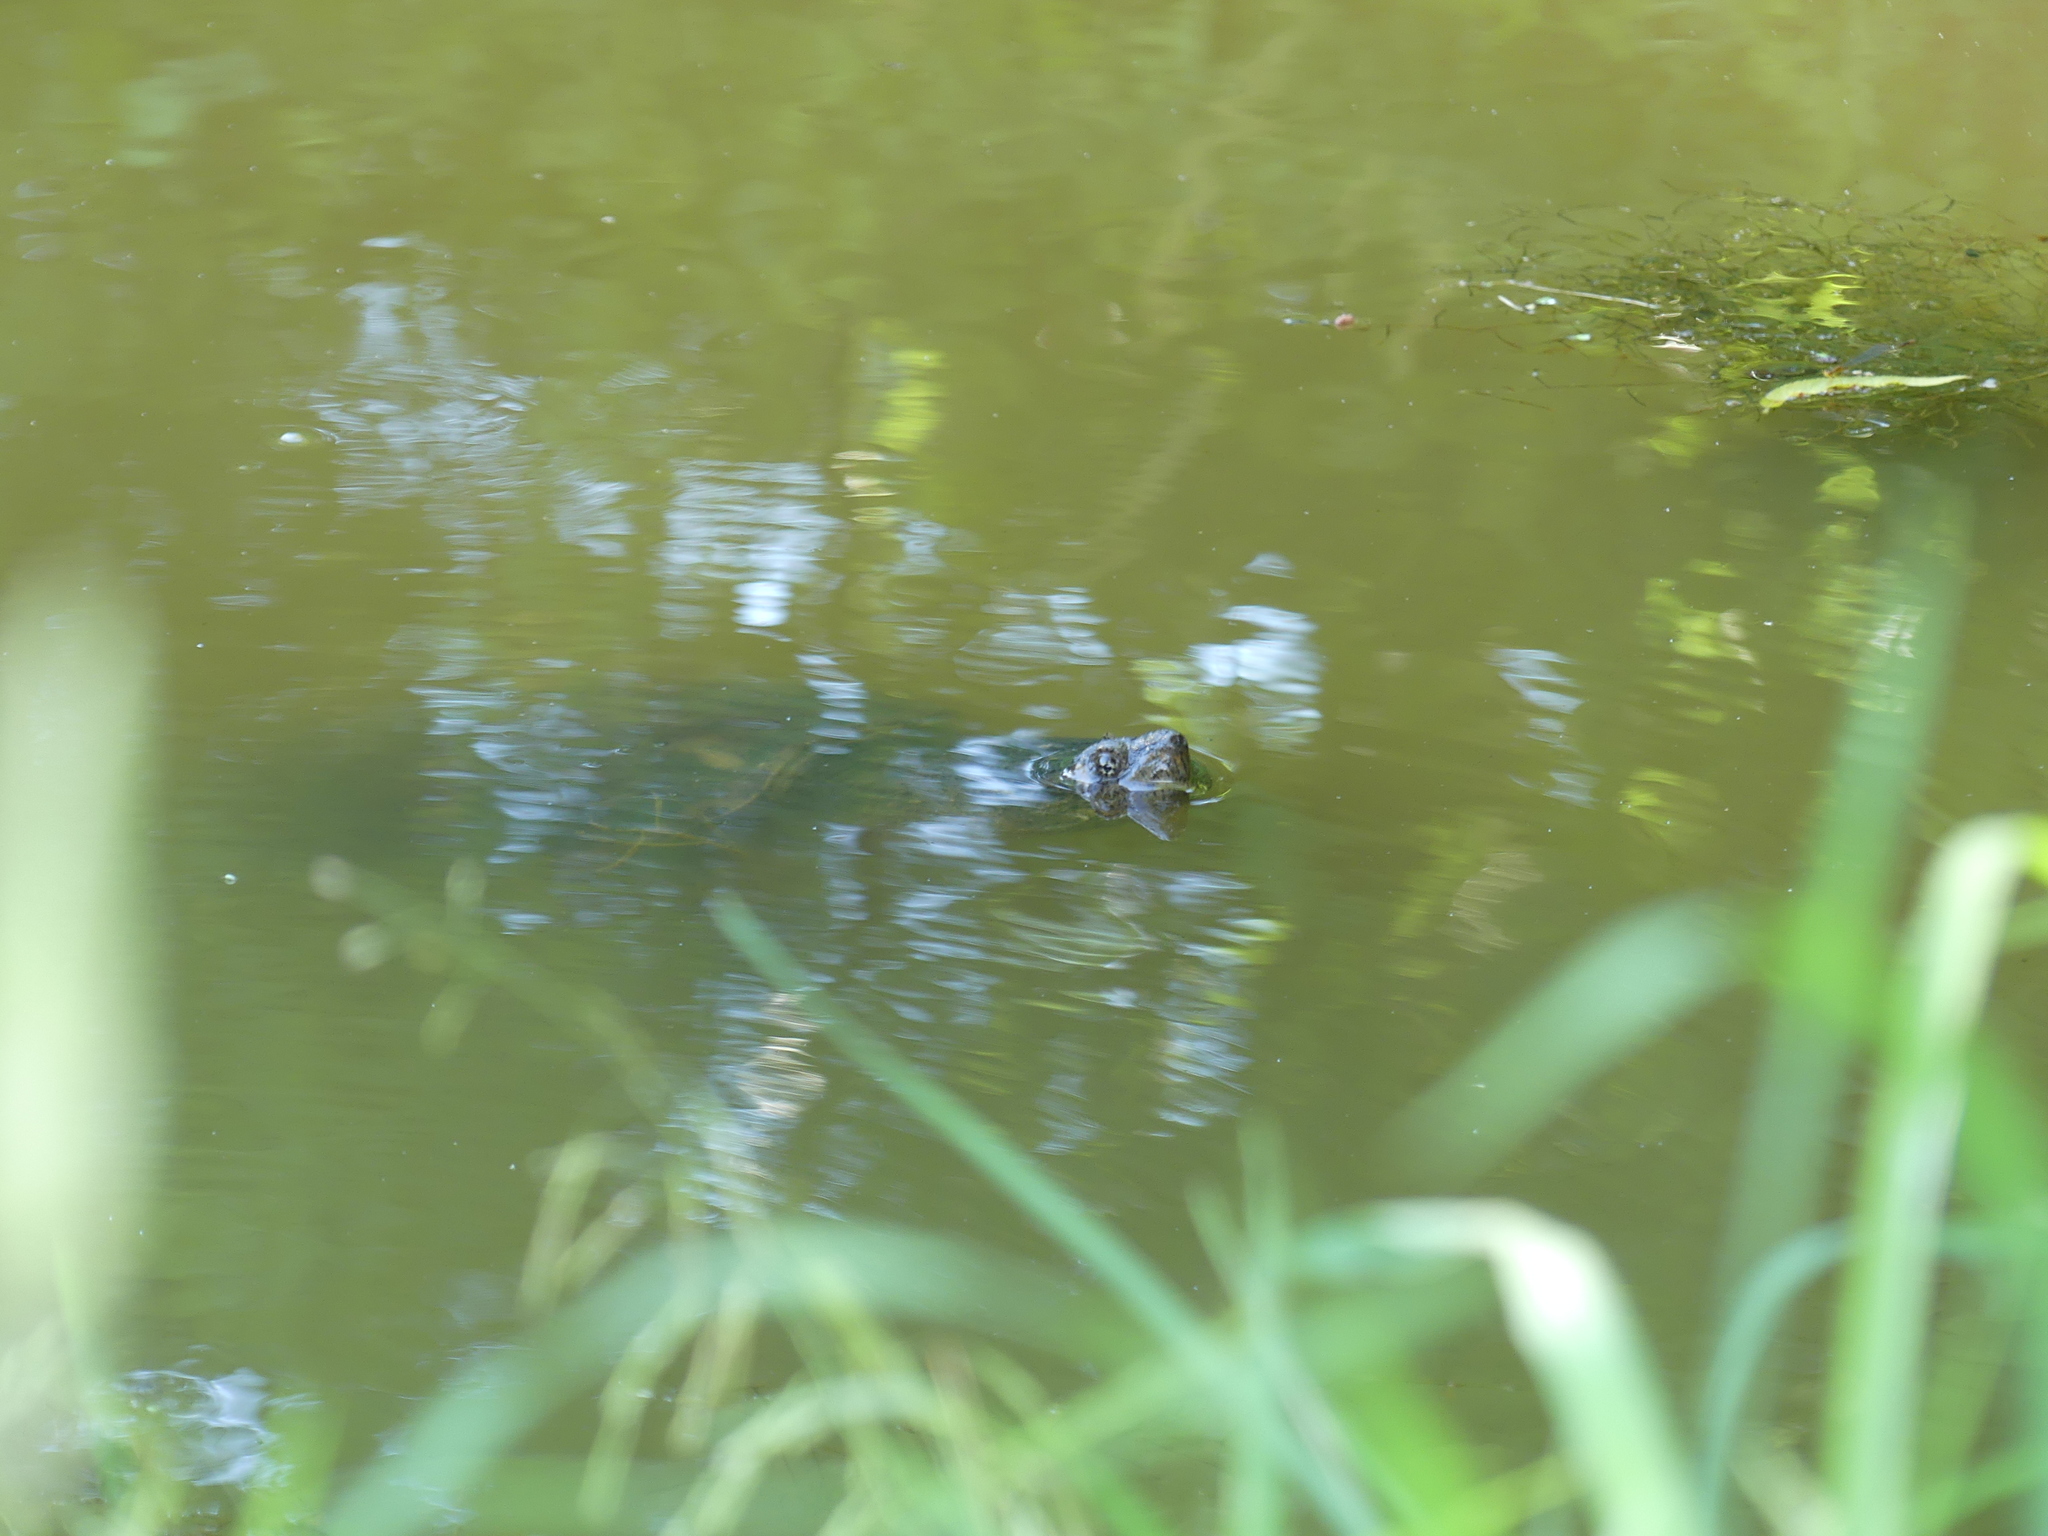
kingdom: Animalia
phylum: Chordata
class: Testudines
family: Chelydridae
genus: Chelydra
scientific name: Chelydra serpentina
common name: Common snapping turtle
